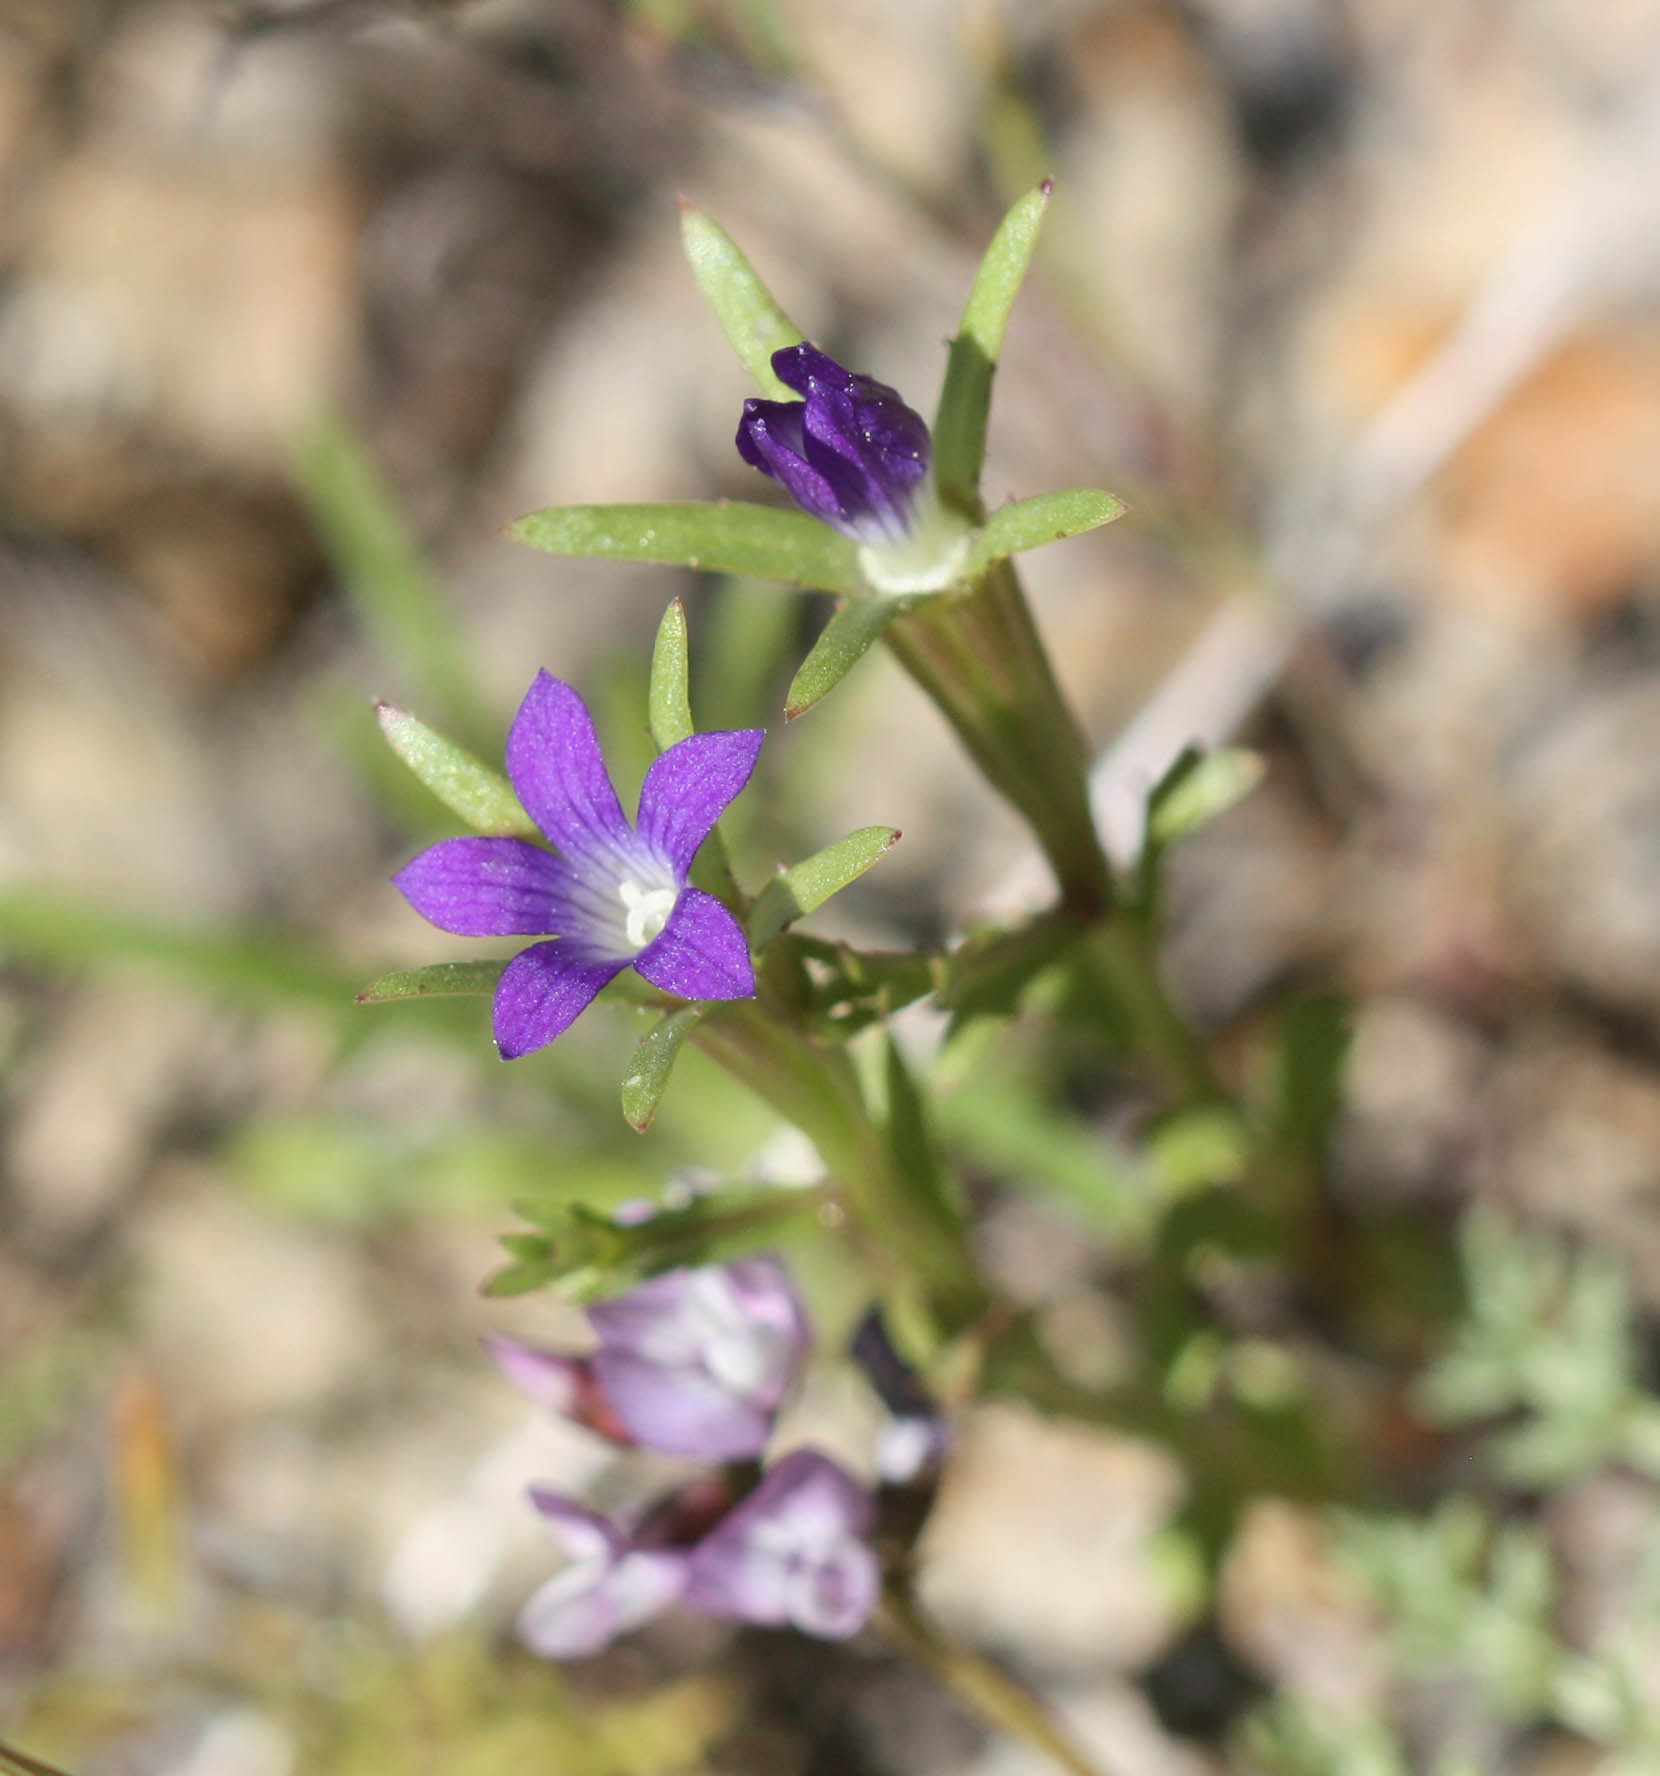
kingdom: Plantae
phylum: Tracheophyta
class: Magnoliopsida
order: Asterales
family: Campanulaceae
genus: Githopsis
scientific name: Githopsis specularioides
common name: Common bluecup
